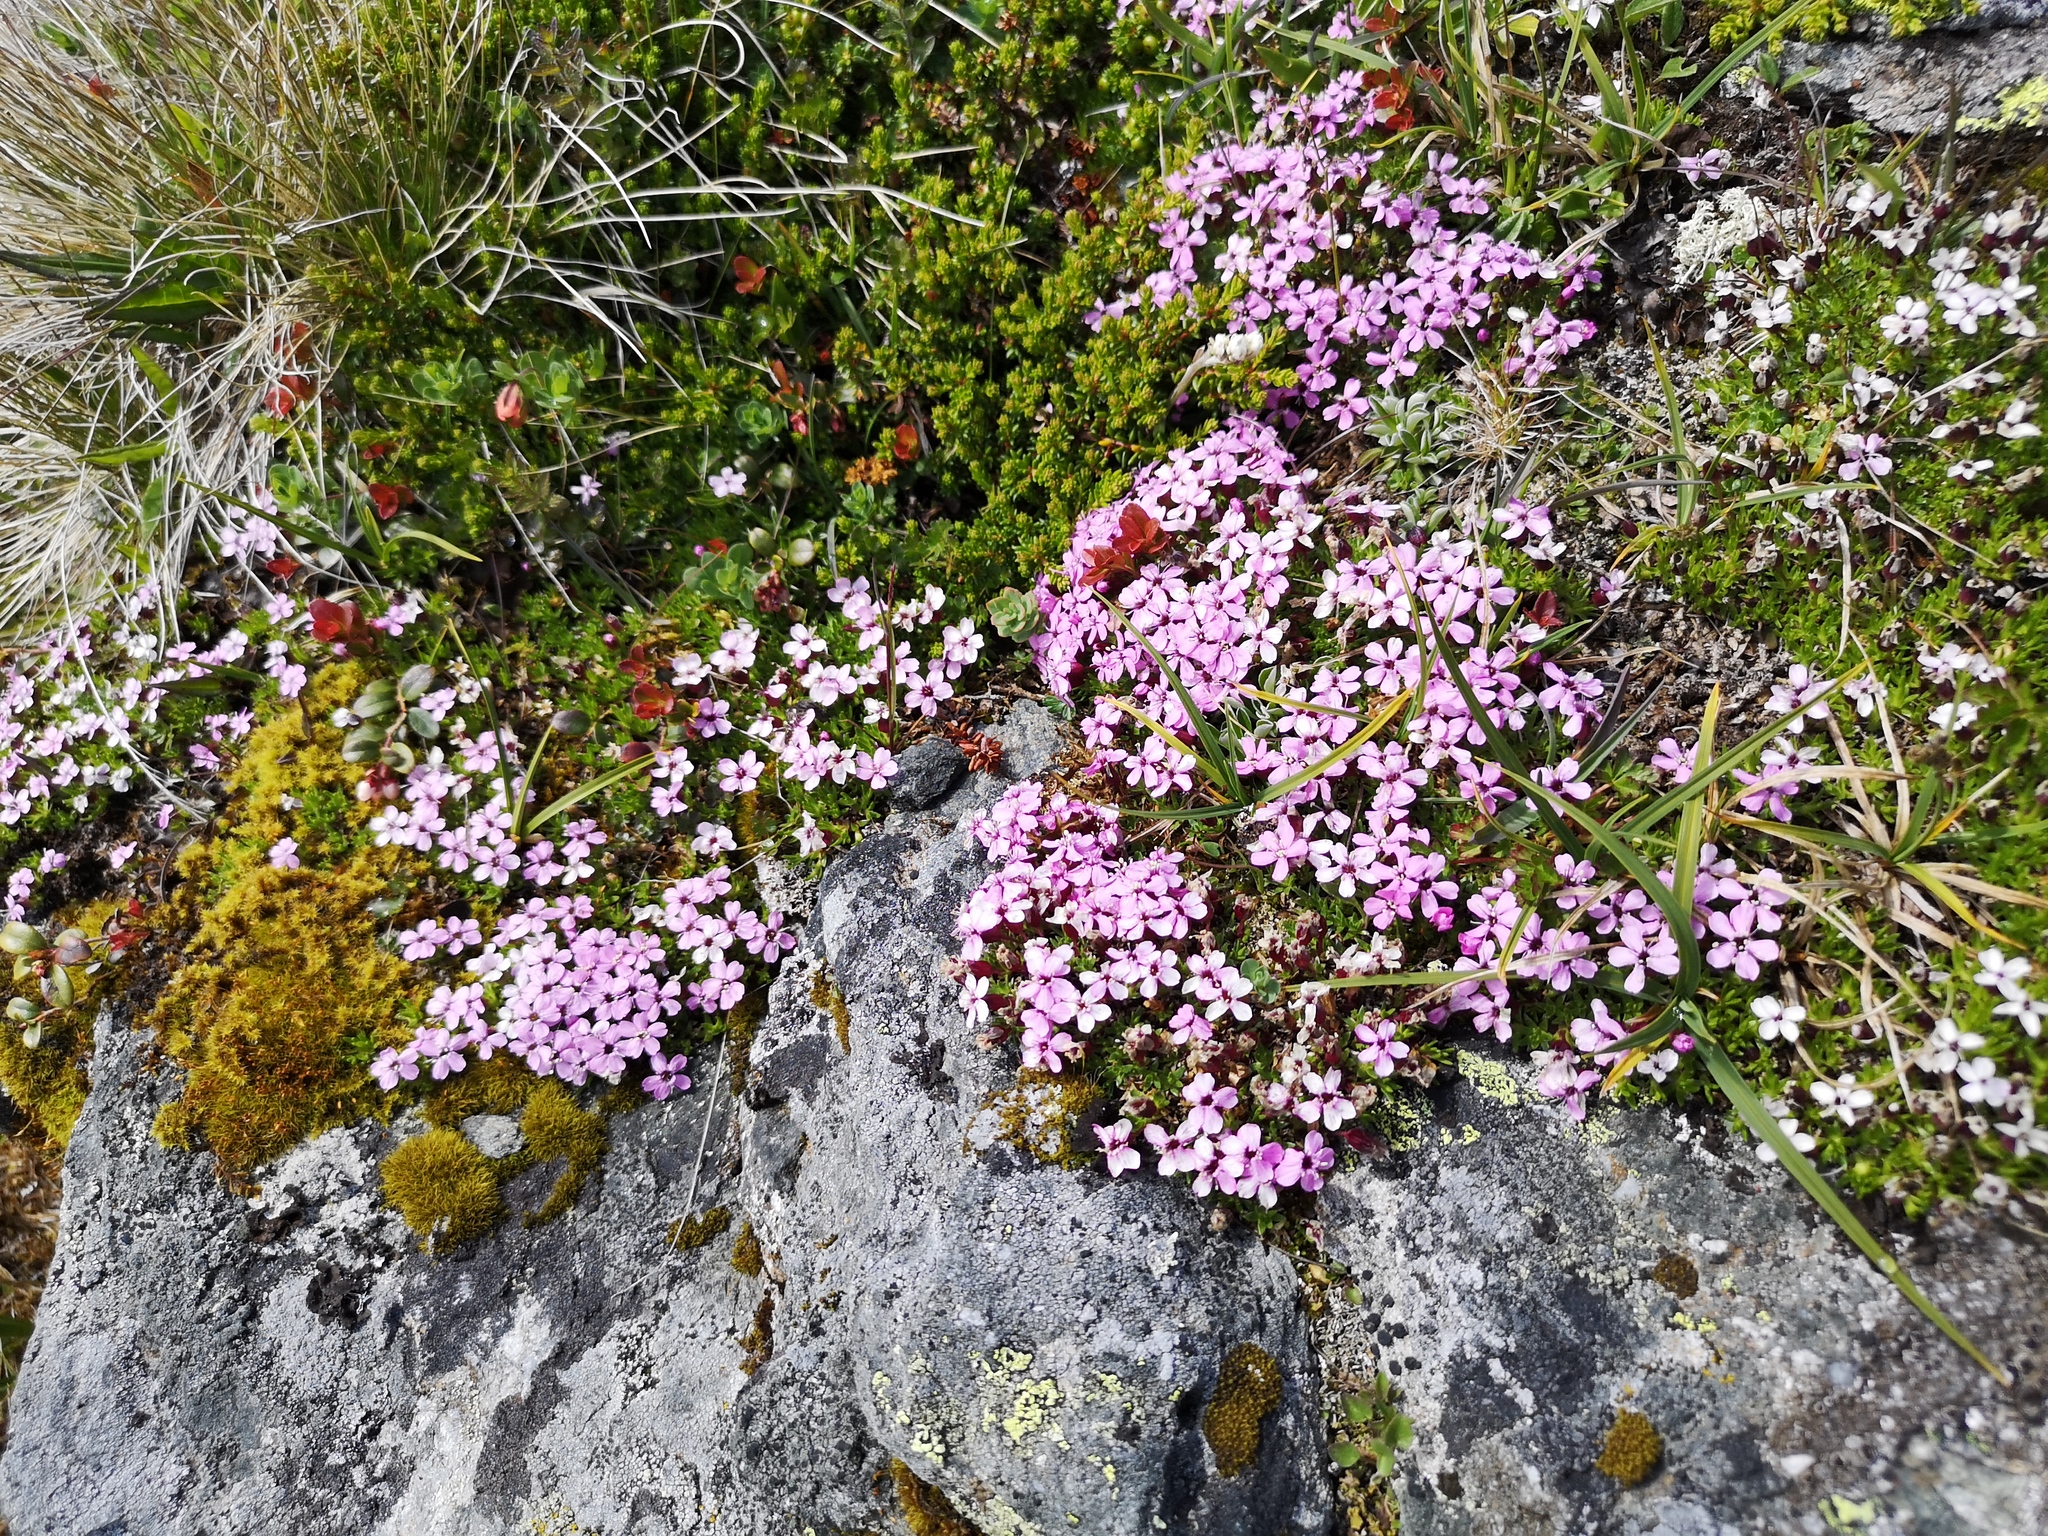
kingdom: Plantae
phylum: Tracheophyta
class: Magnoliopsida
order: Caryophyllales
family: Caryophyllaceae
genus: Silene
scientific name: Silene acaulis
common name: Moss campion
